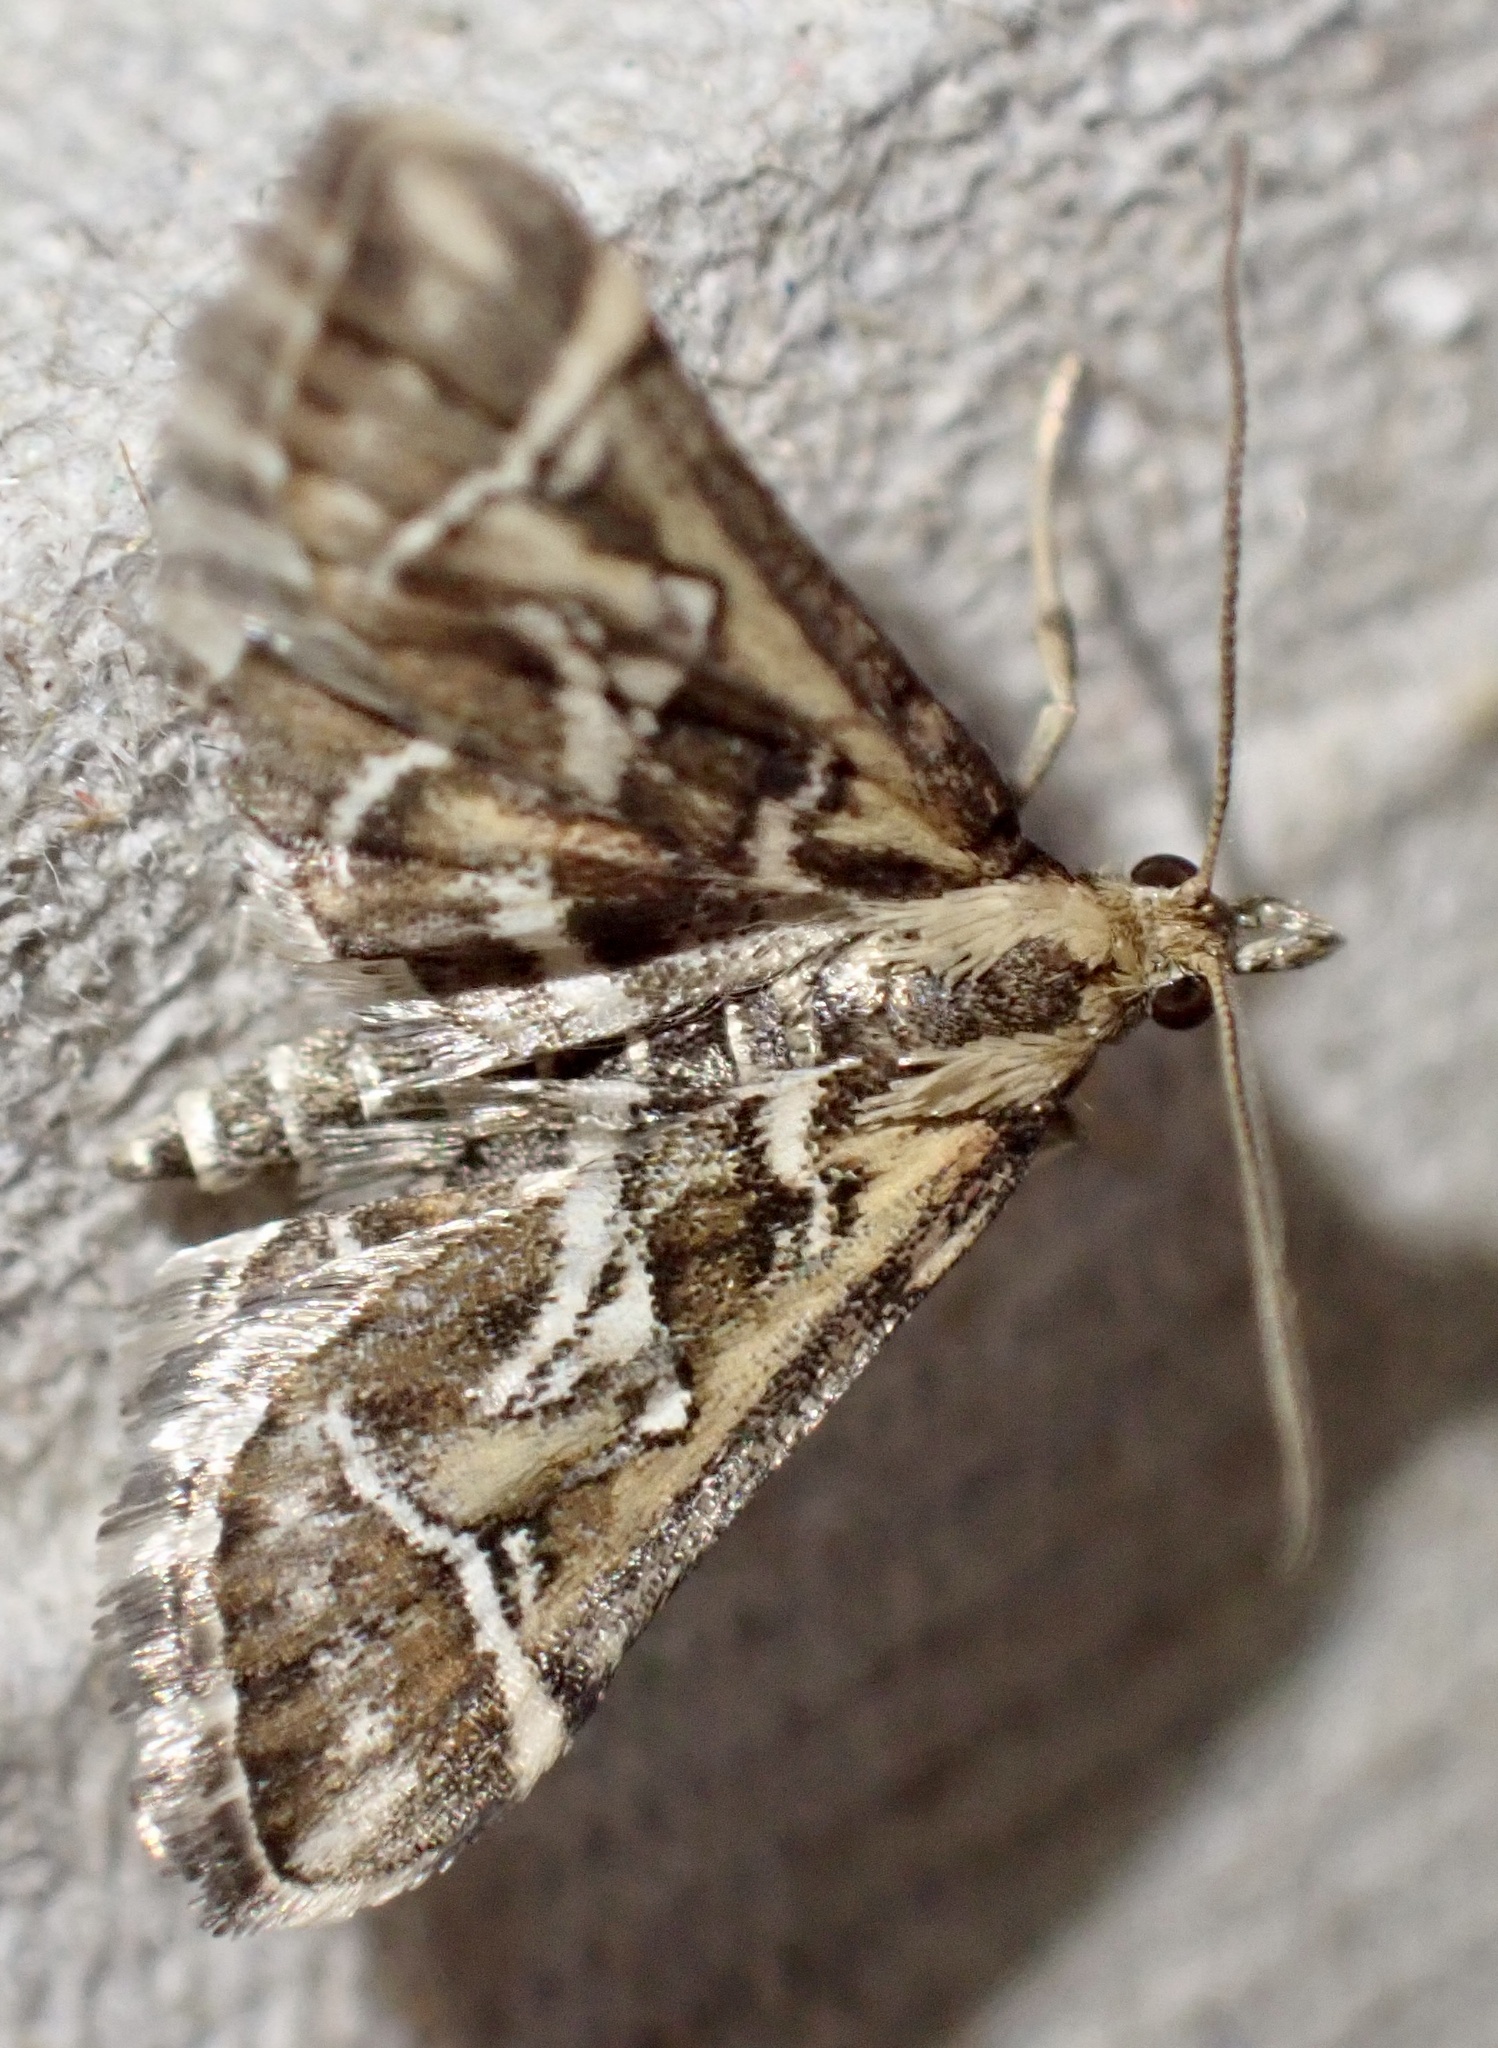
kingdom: Animalia
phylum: Arthropoda
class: Insecta
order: Lepidoptera
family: Crambidae
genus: Diasemia
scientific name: Diasemia reticularis
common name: Lettered china-mark
